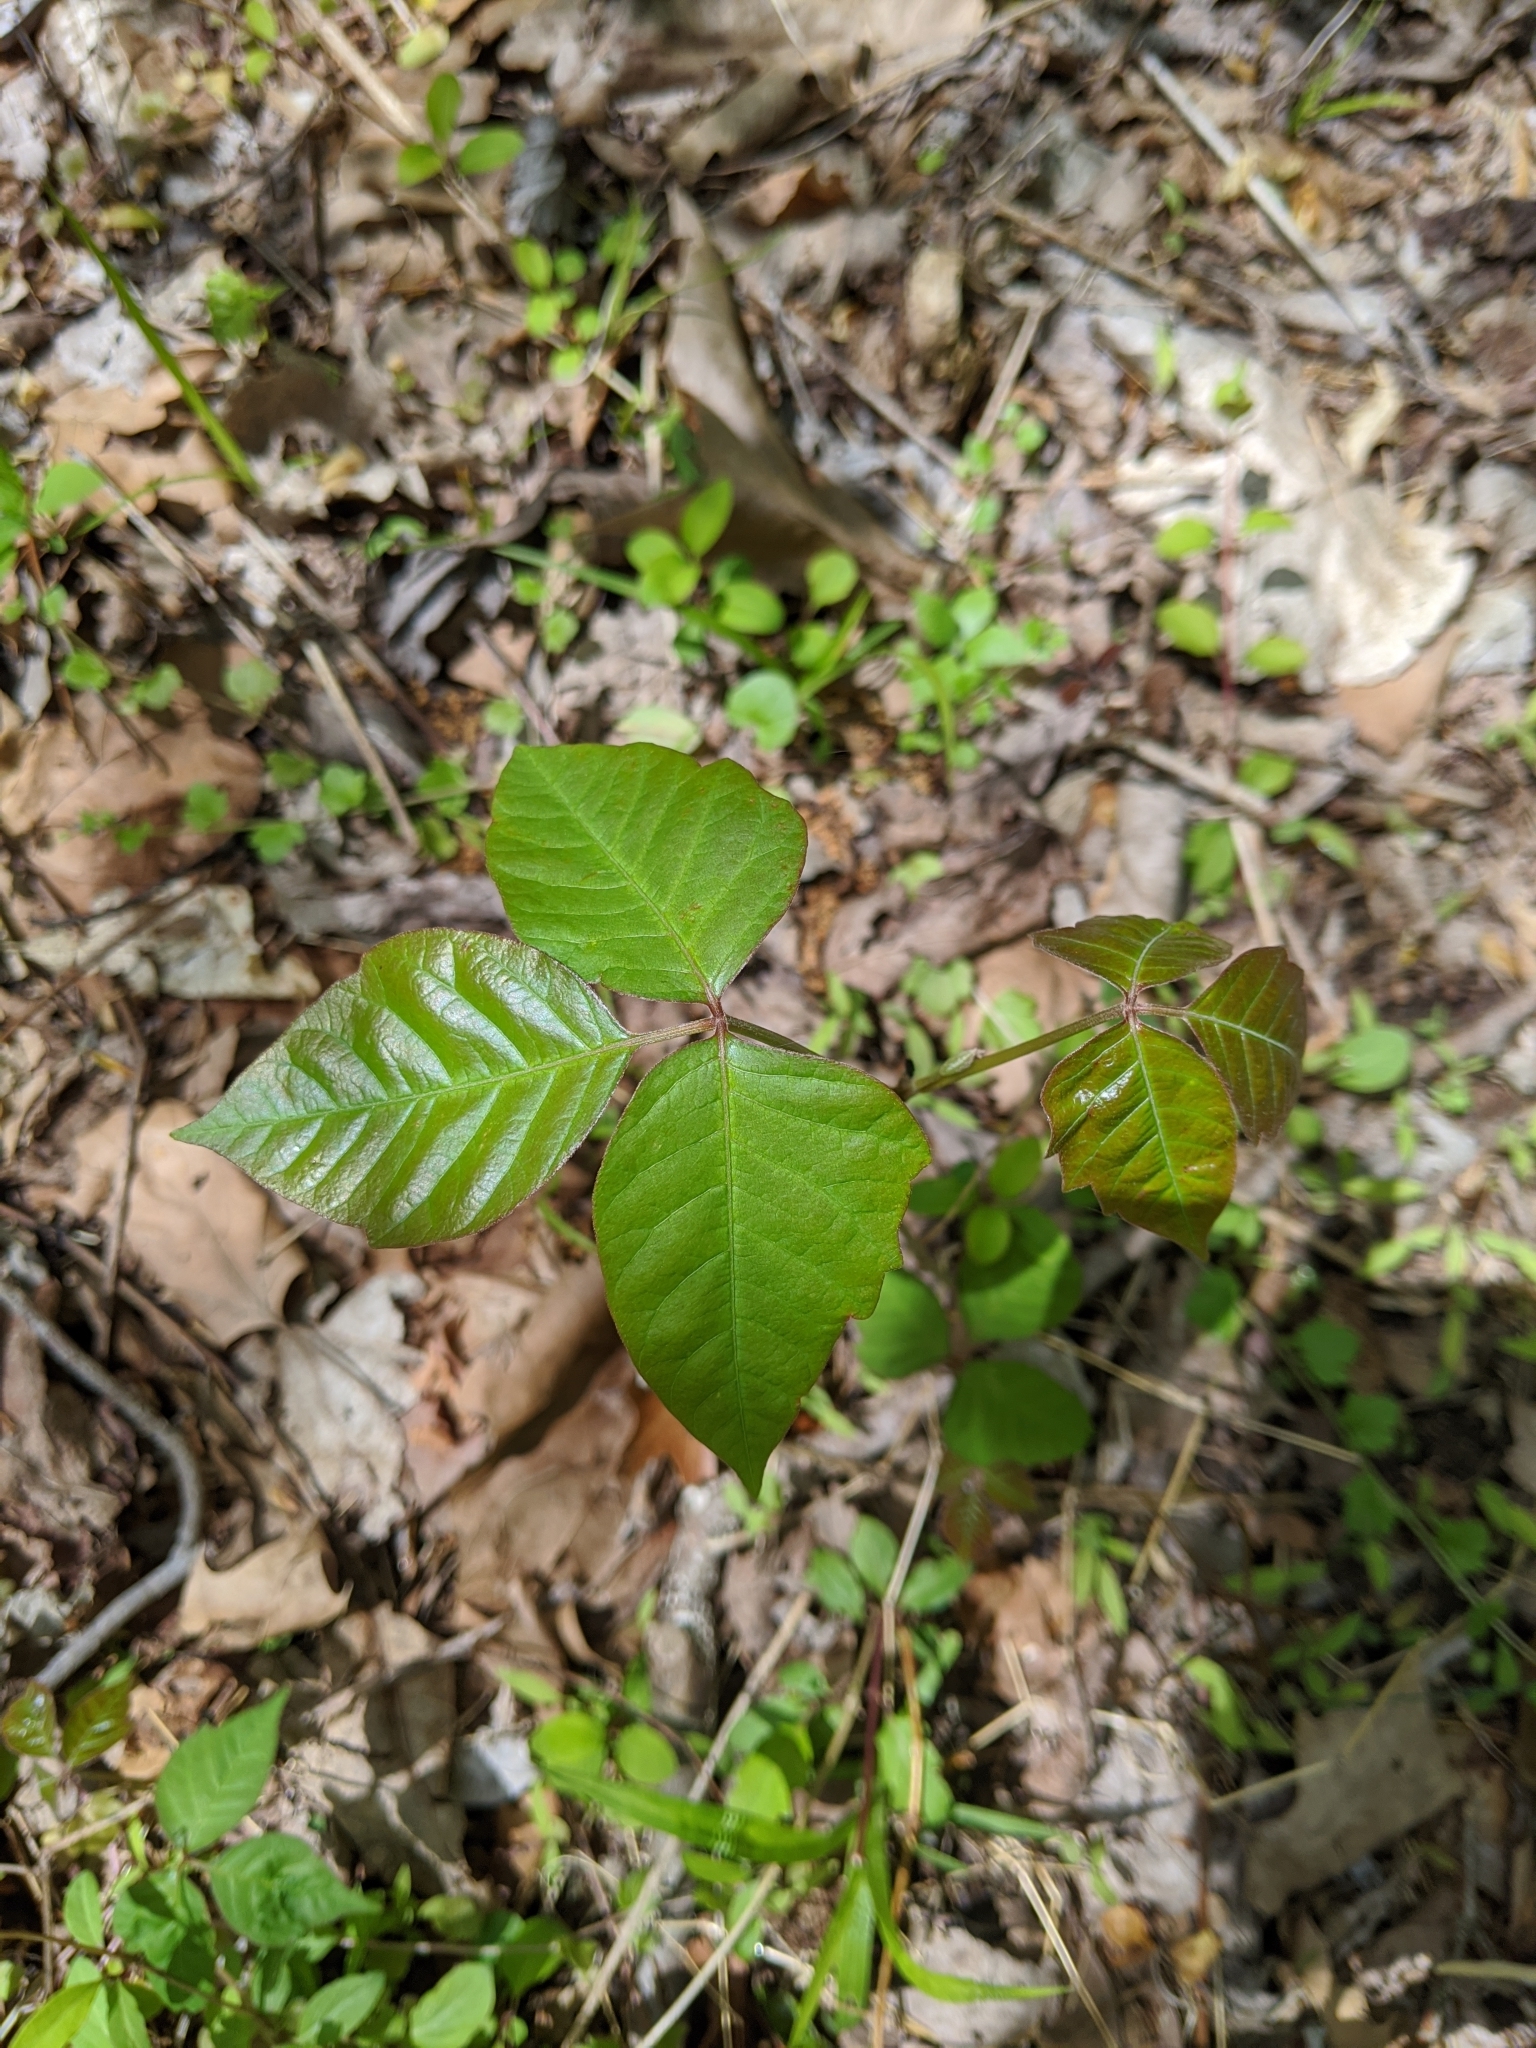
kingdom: Plantae
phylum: Tracheophyta
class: Magnoliopsida
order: Sapindales
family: Anacardiaceae
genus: Toxicodendron
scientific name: Toxicodendron radicans
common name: Poison ivy
